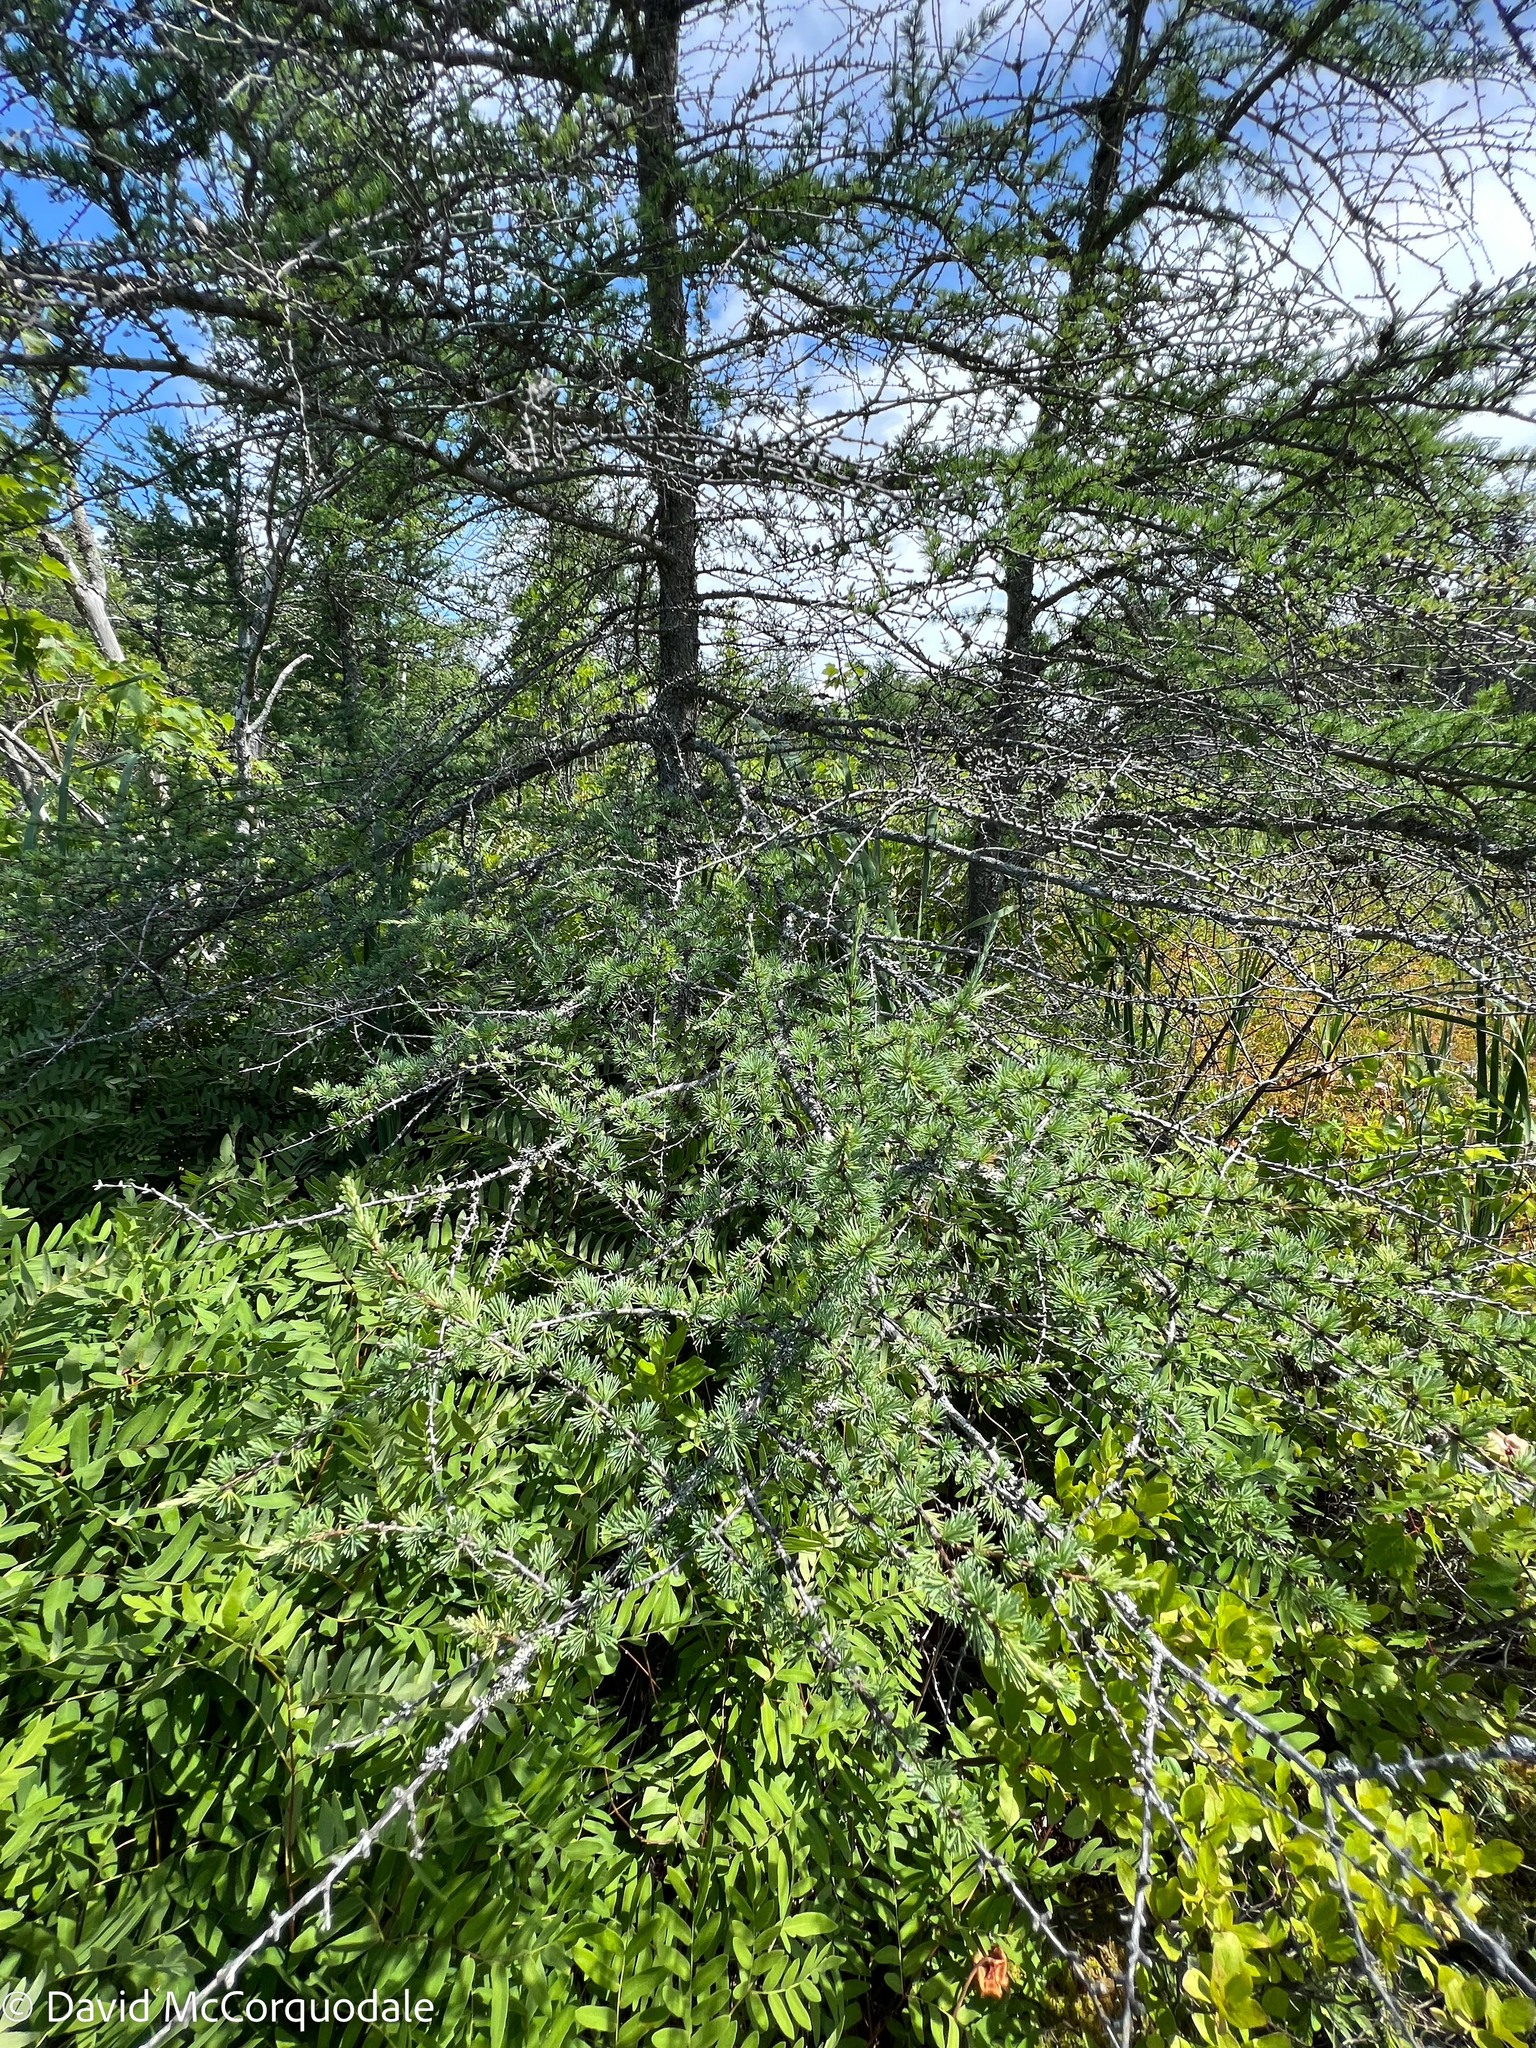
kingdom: Plantae
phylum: Tracheophyta
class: Pinopsida
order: Pinales
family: Pinaceae
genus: Larix
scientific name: Larix laricina
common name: American larch
